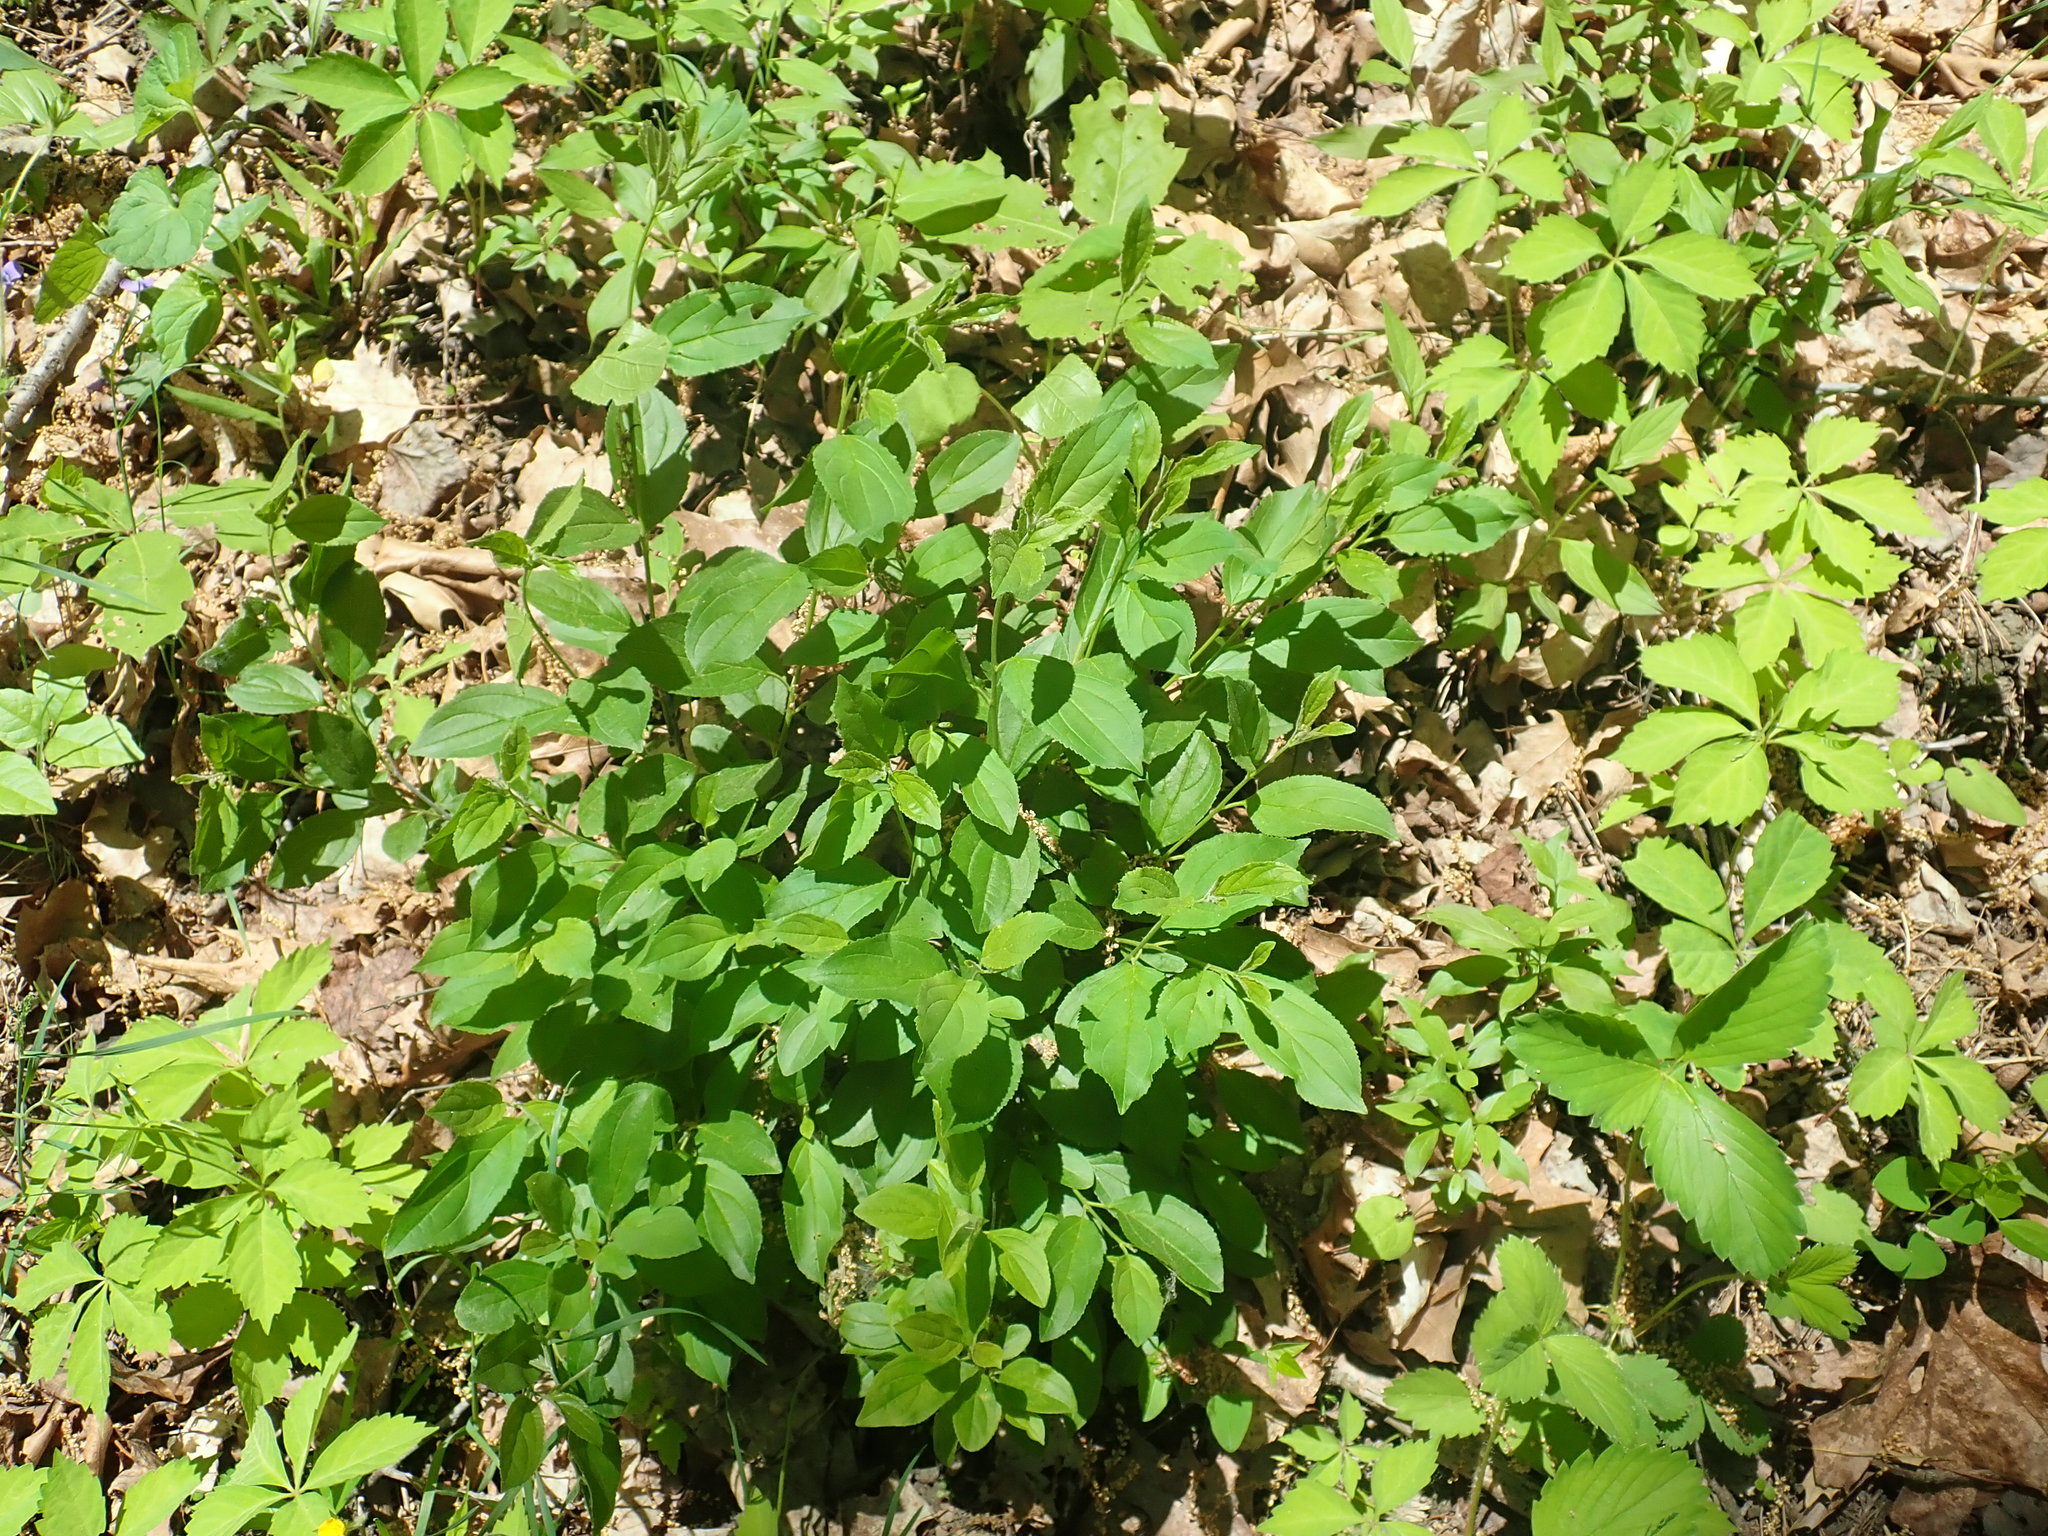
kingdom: Plantae
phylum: Tracheophyta
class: Magnoliopsida
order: Rosales
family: Rhamnaceae
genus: Rhamnus
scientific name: Rhamnus cathartica
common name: Common buckthorn
